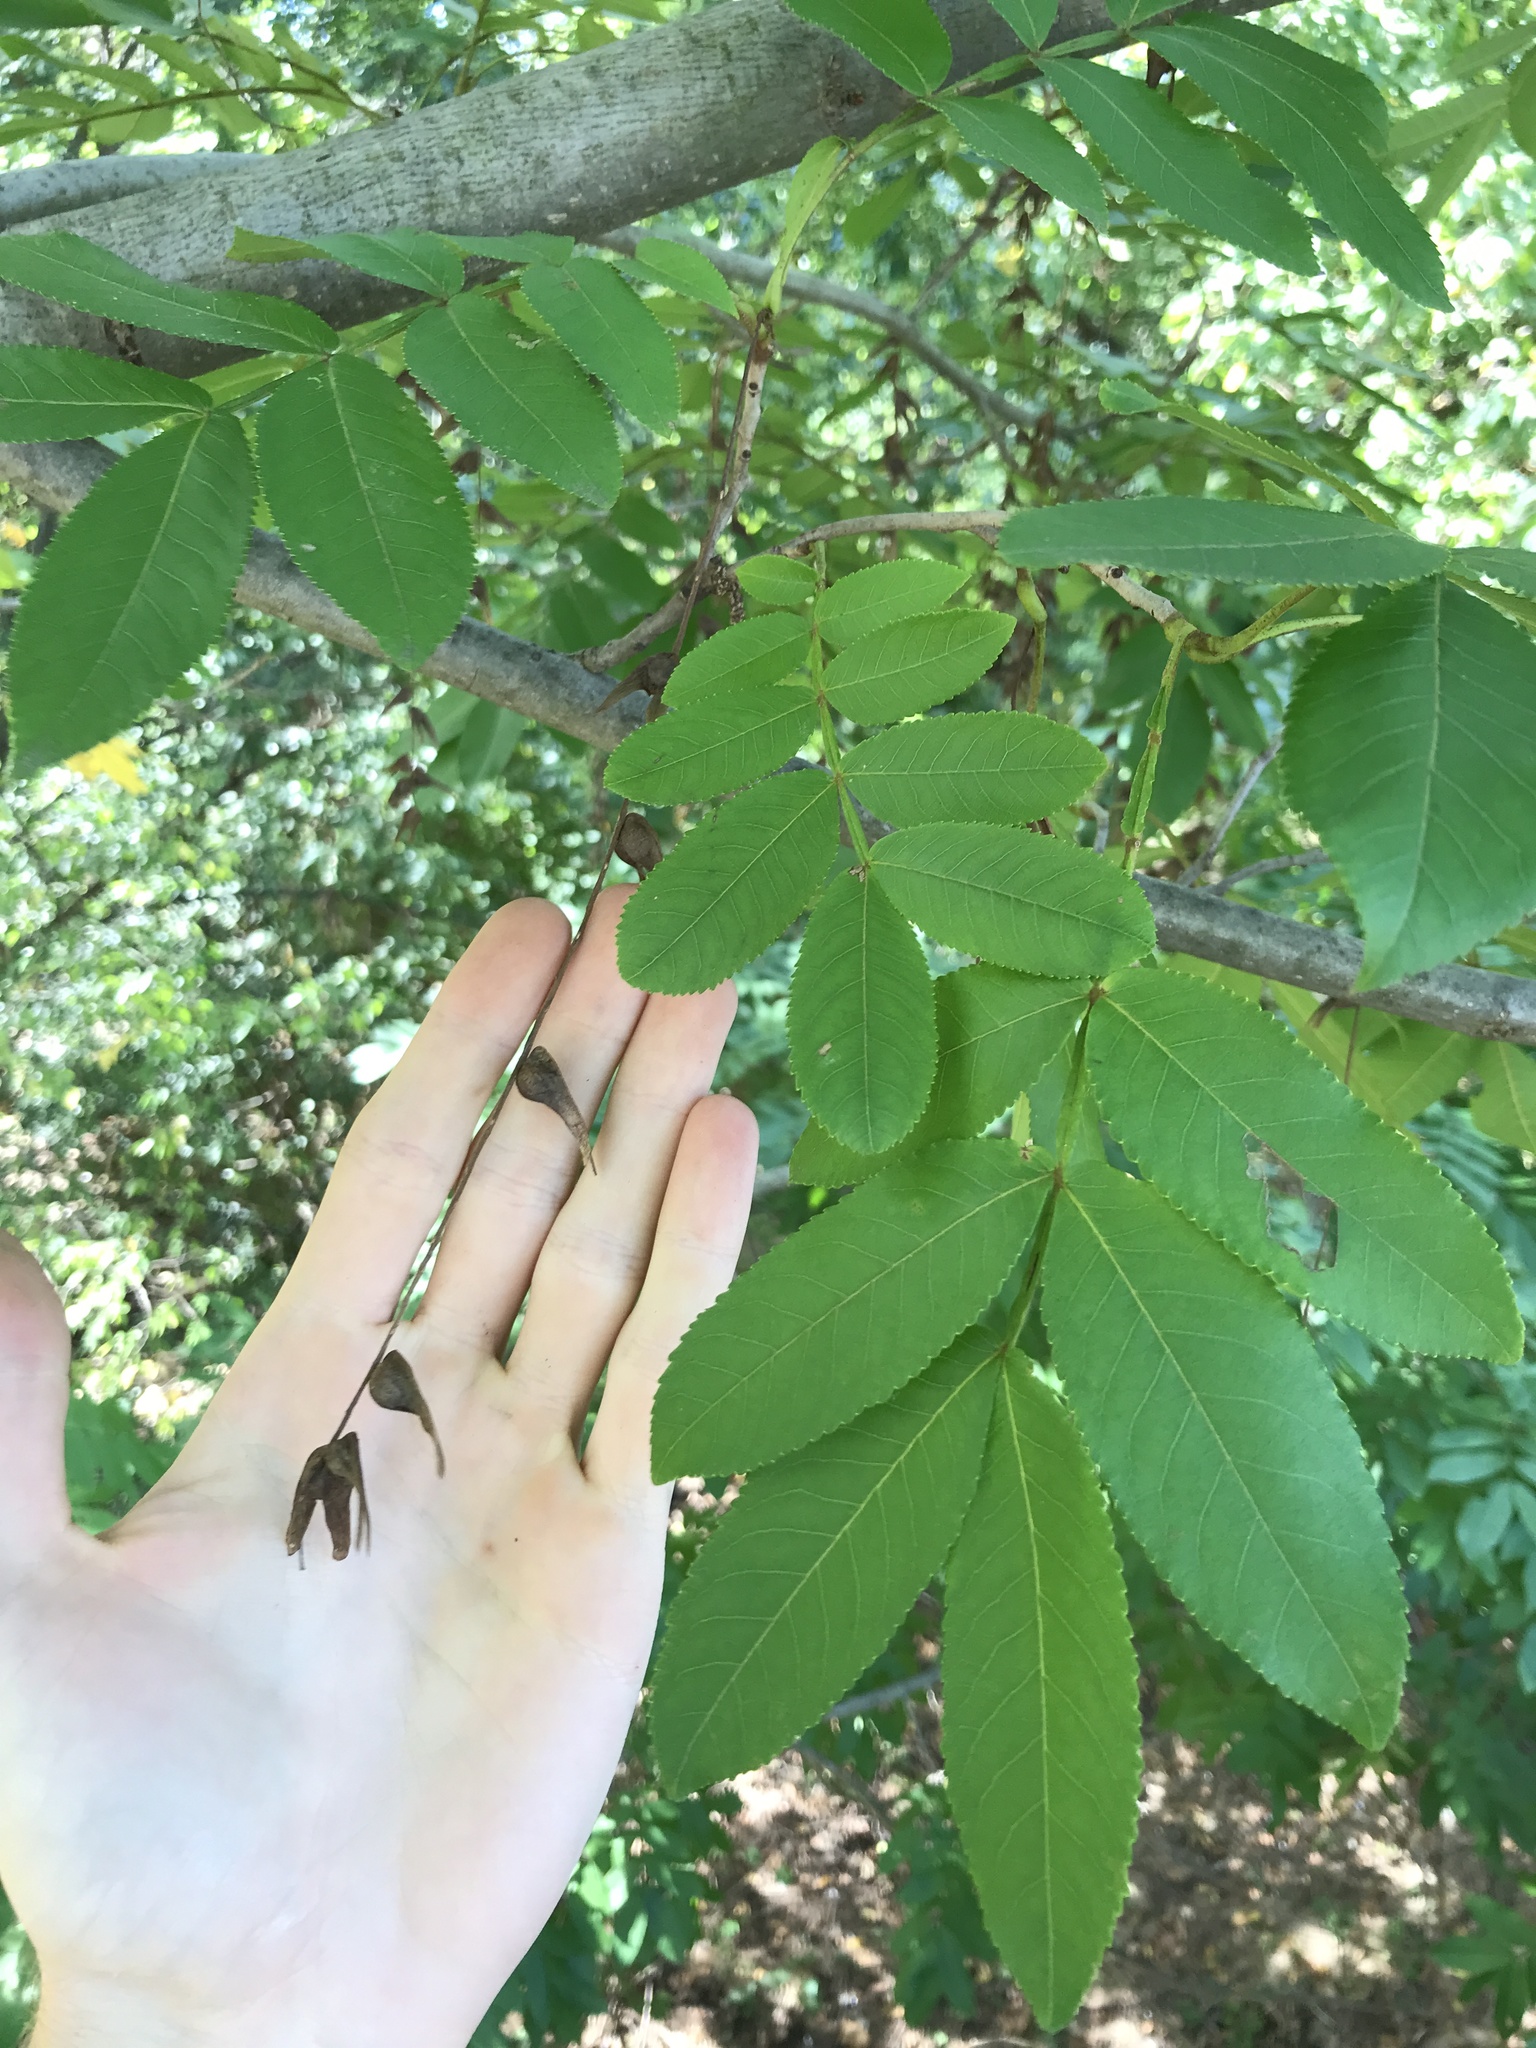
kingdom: Plantae
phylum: Tracheophyta
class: Magnoliopsida
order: Fagales
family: Juglandaceae
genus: Pterocarya
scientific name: Pterocarya stenoptera
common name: Chinese wingnut
